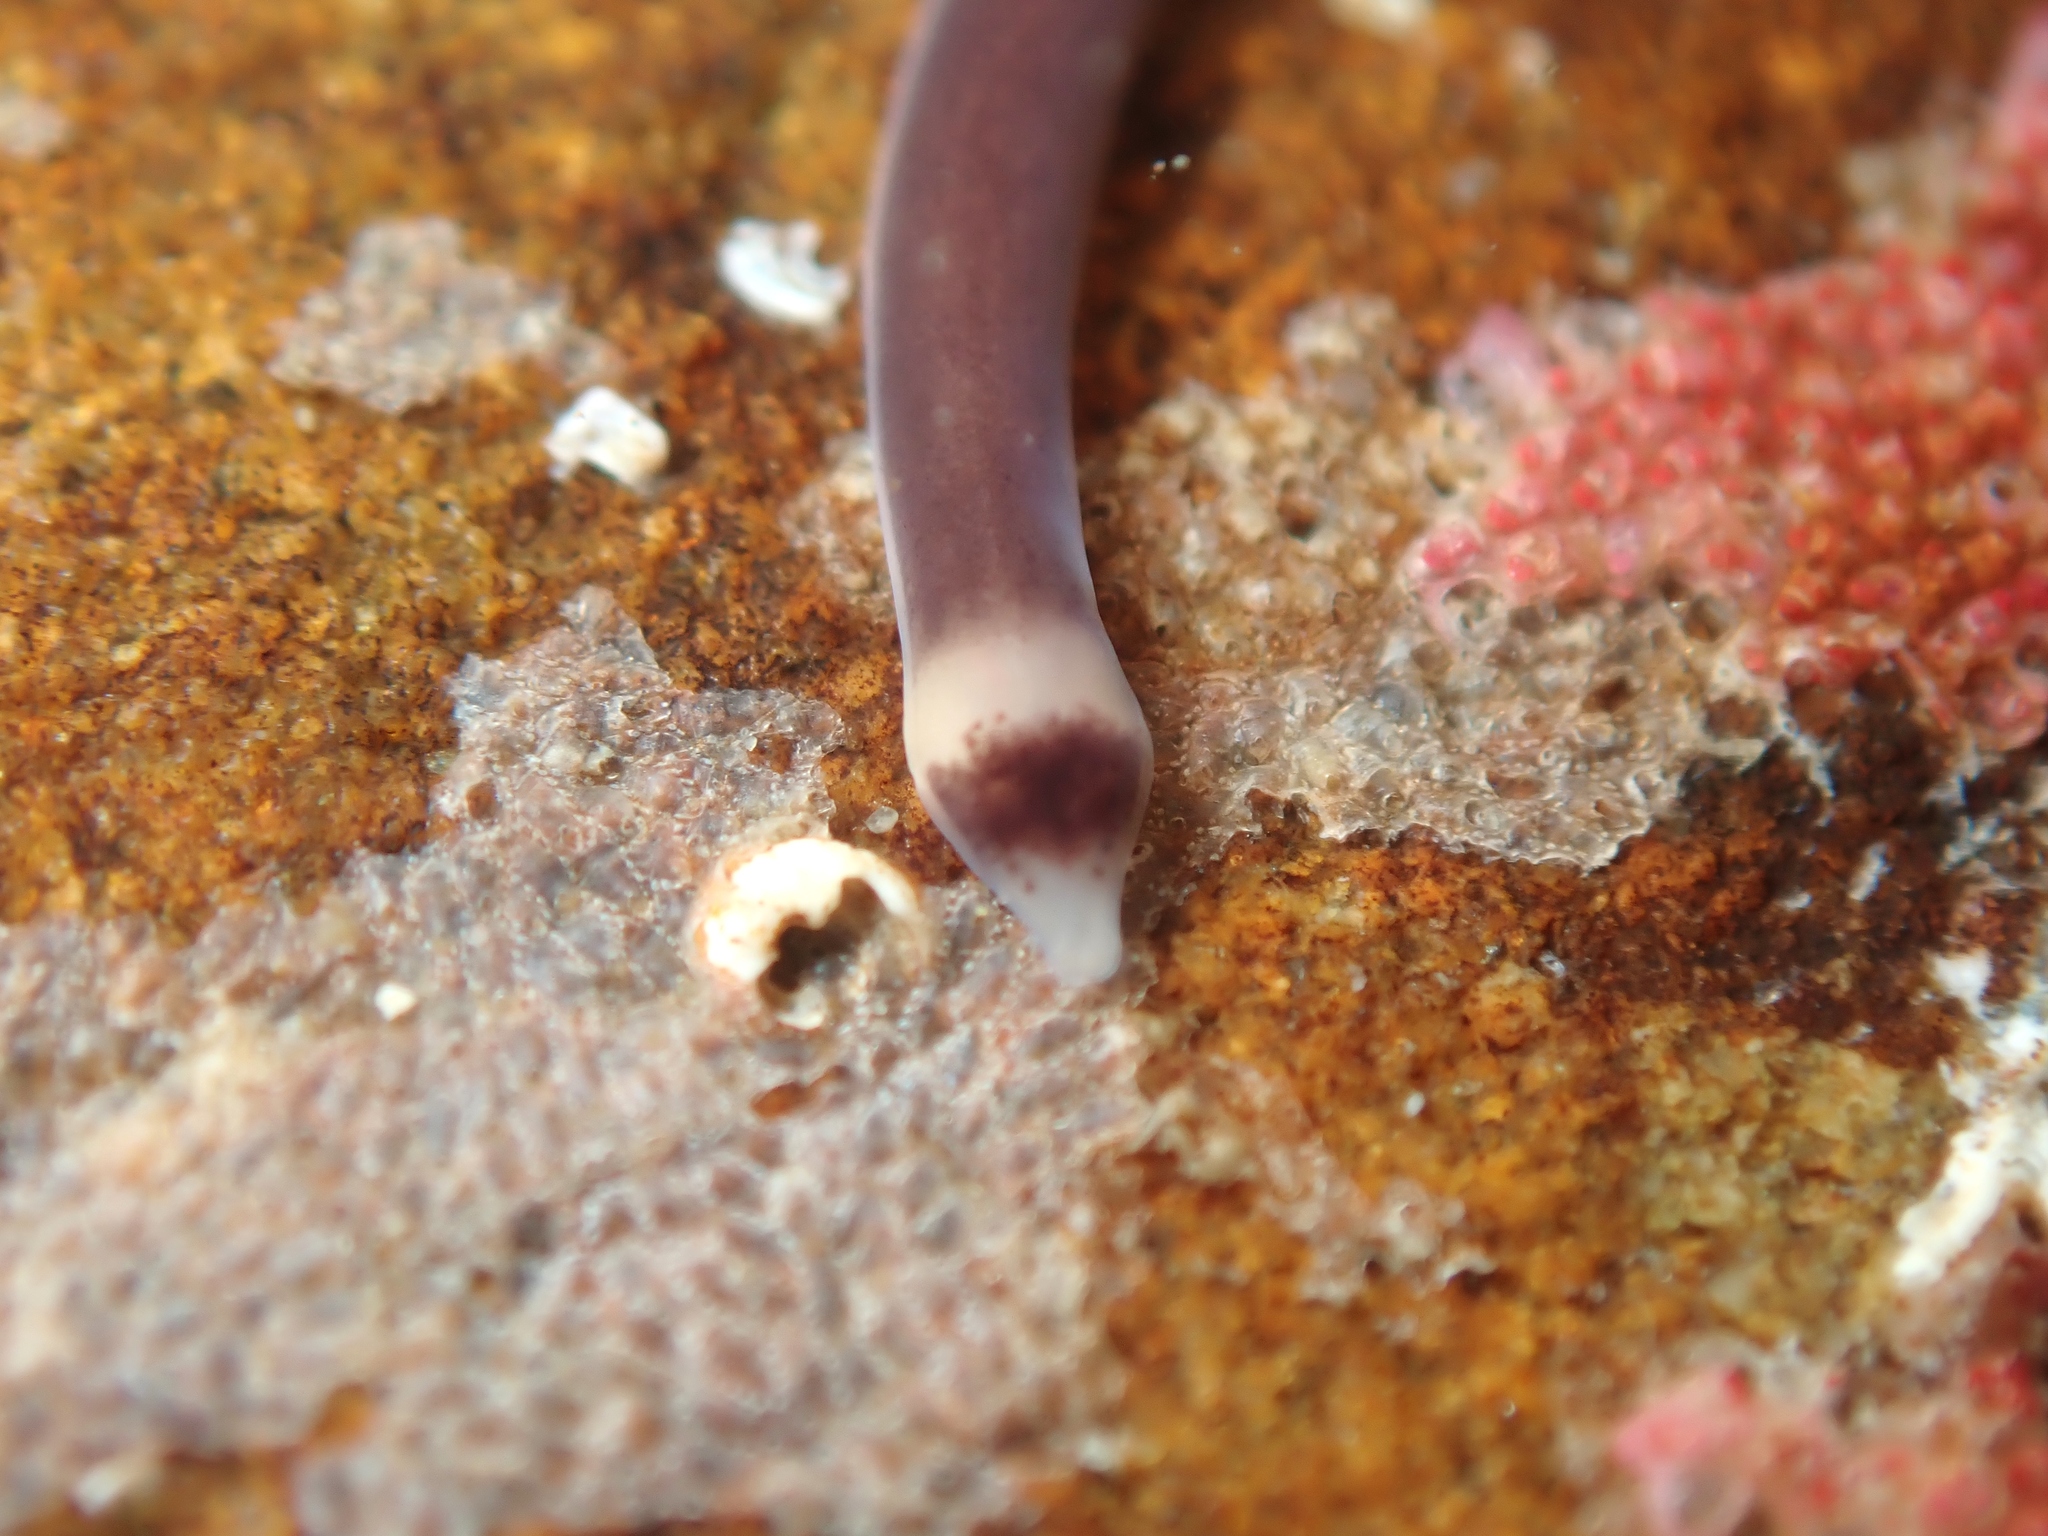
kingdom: Animalia
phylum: Nemertea
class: Hoplonemertea
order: Monostilifera
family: Neesiidae
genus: Noteonemertes
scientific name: Noteonemertes novaezealandiae
